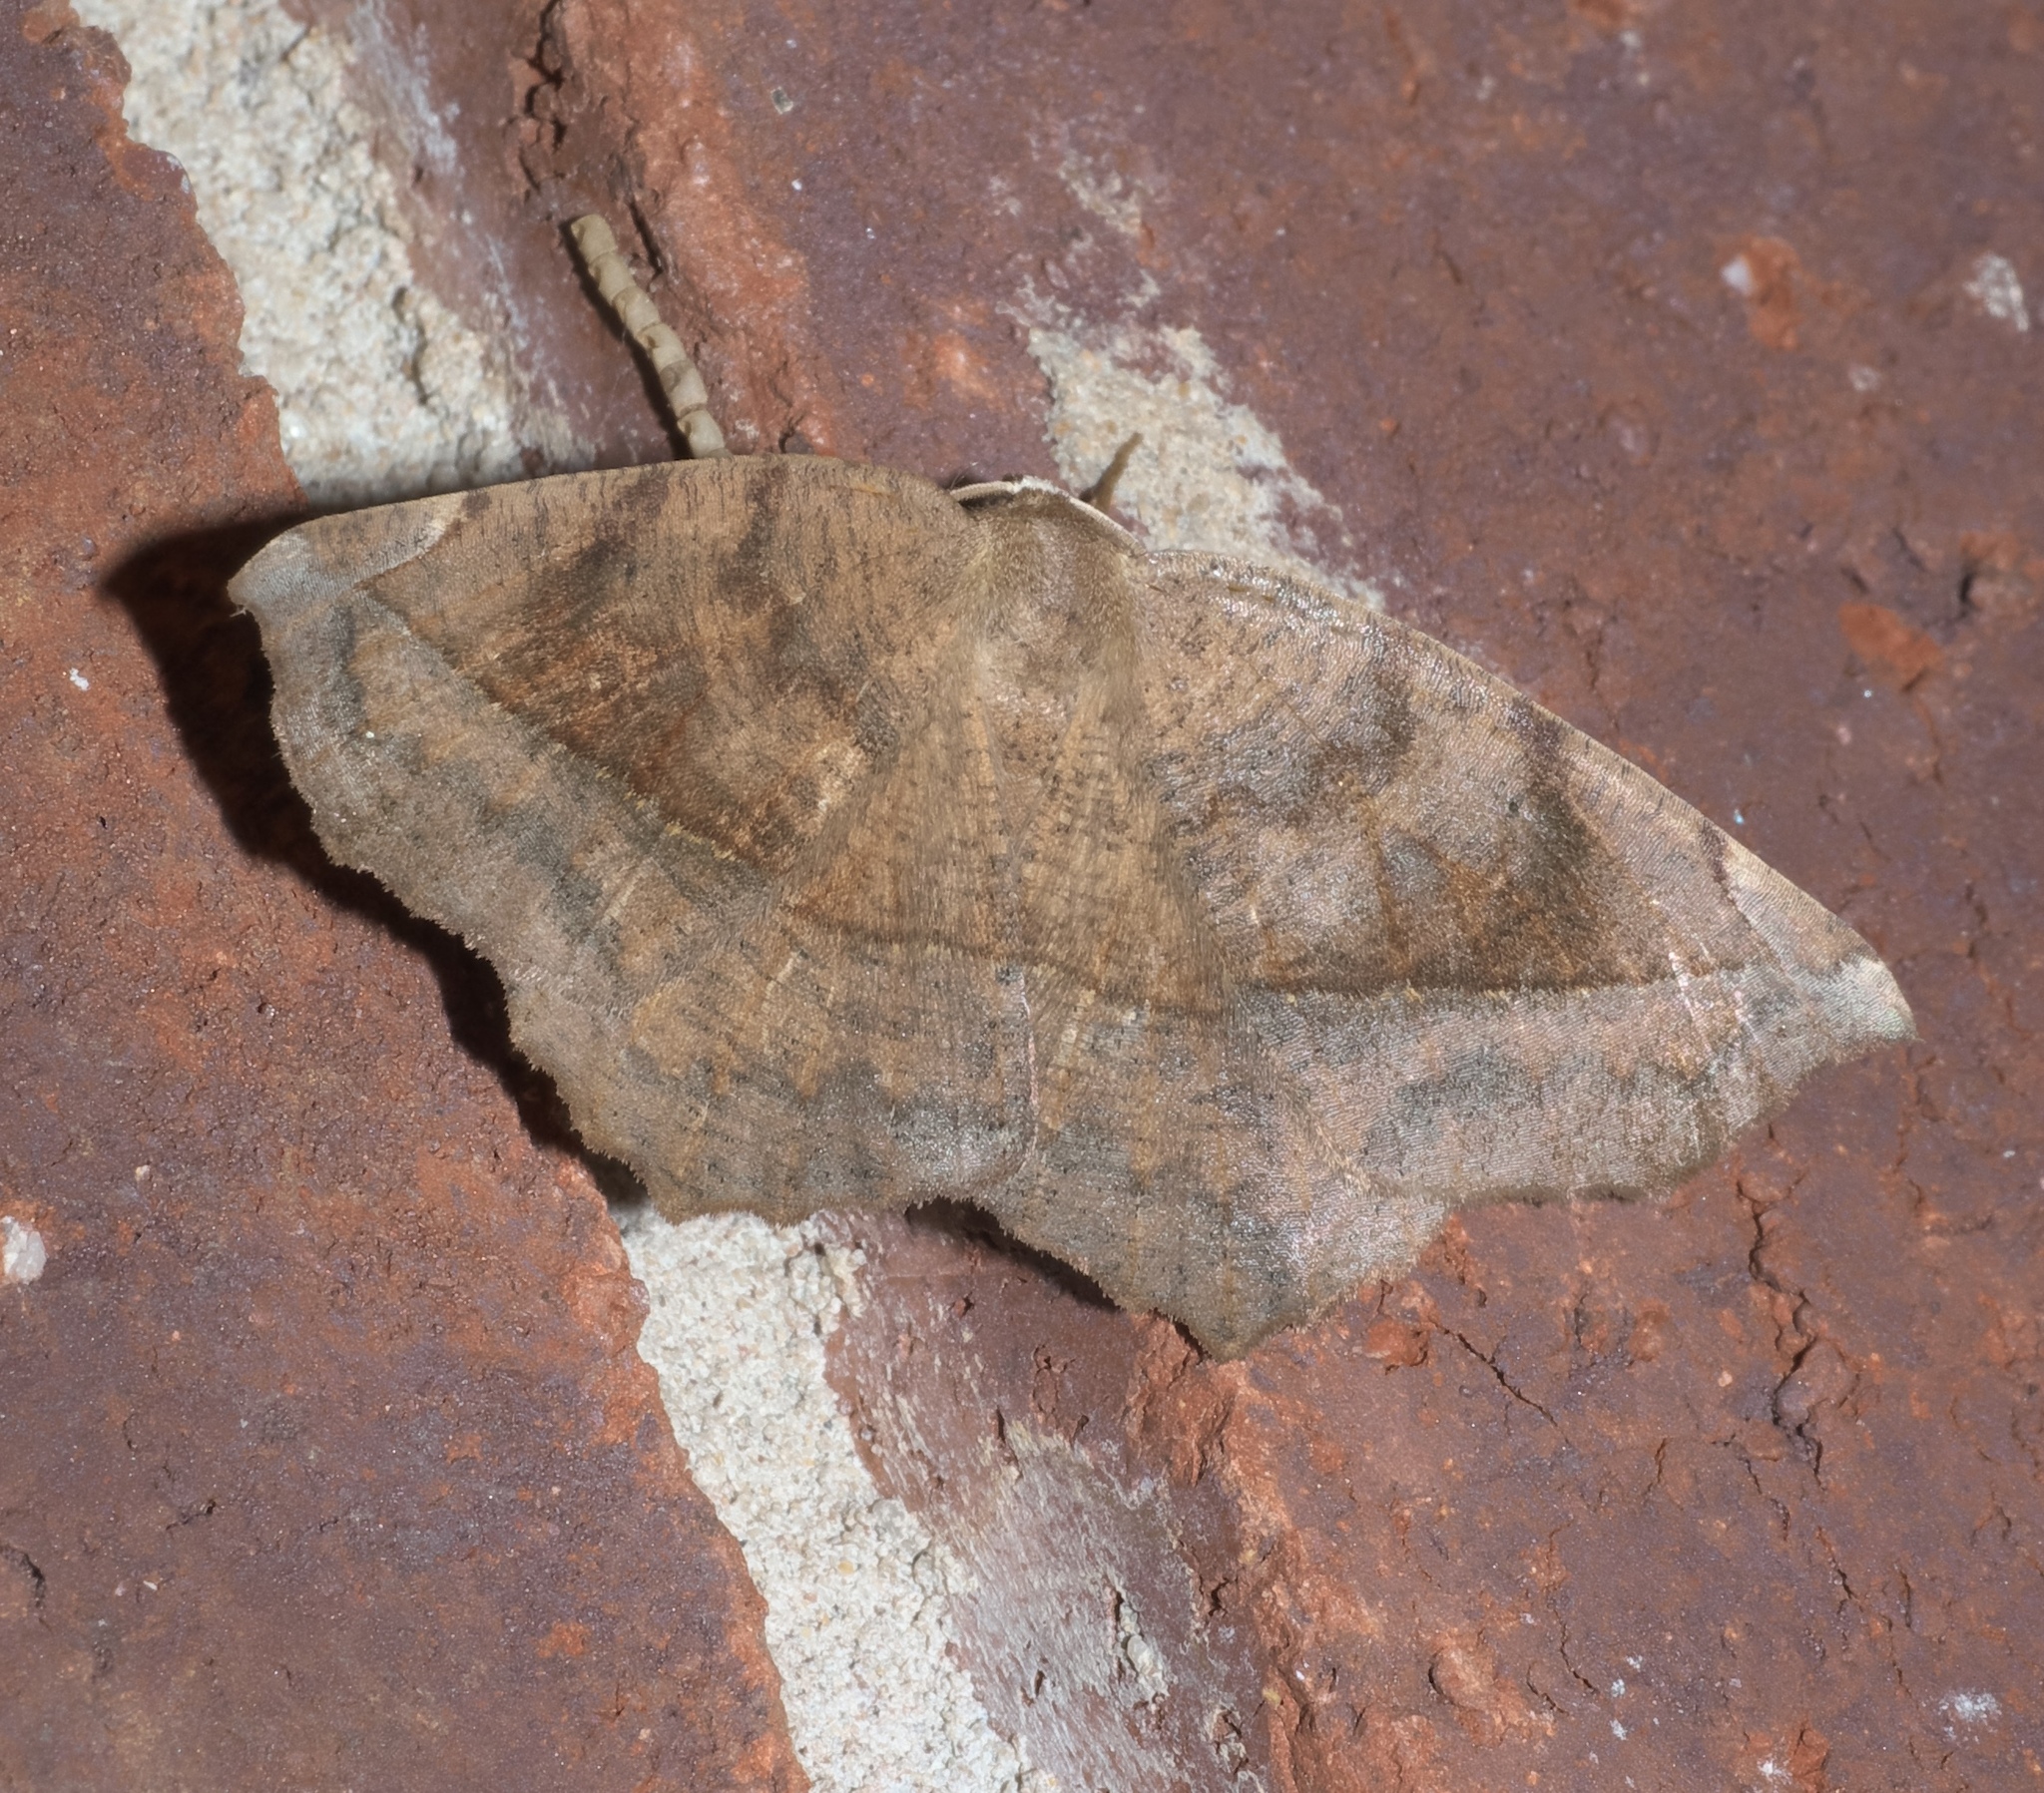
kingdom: Animalia
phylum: Arthropoda
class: Insecta
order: Lepidoptera
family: Geometridae
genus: Eutrapela
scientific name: Eutrapela clemataria
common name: Curved-toothed geometer
